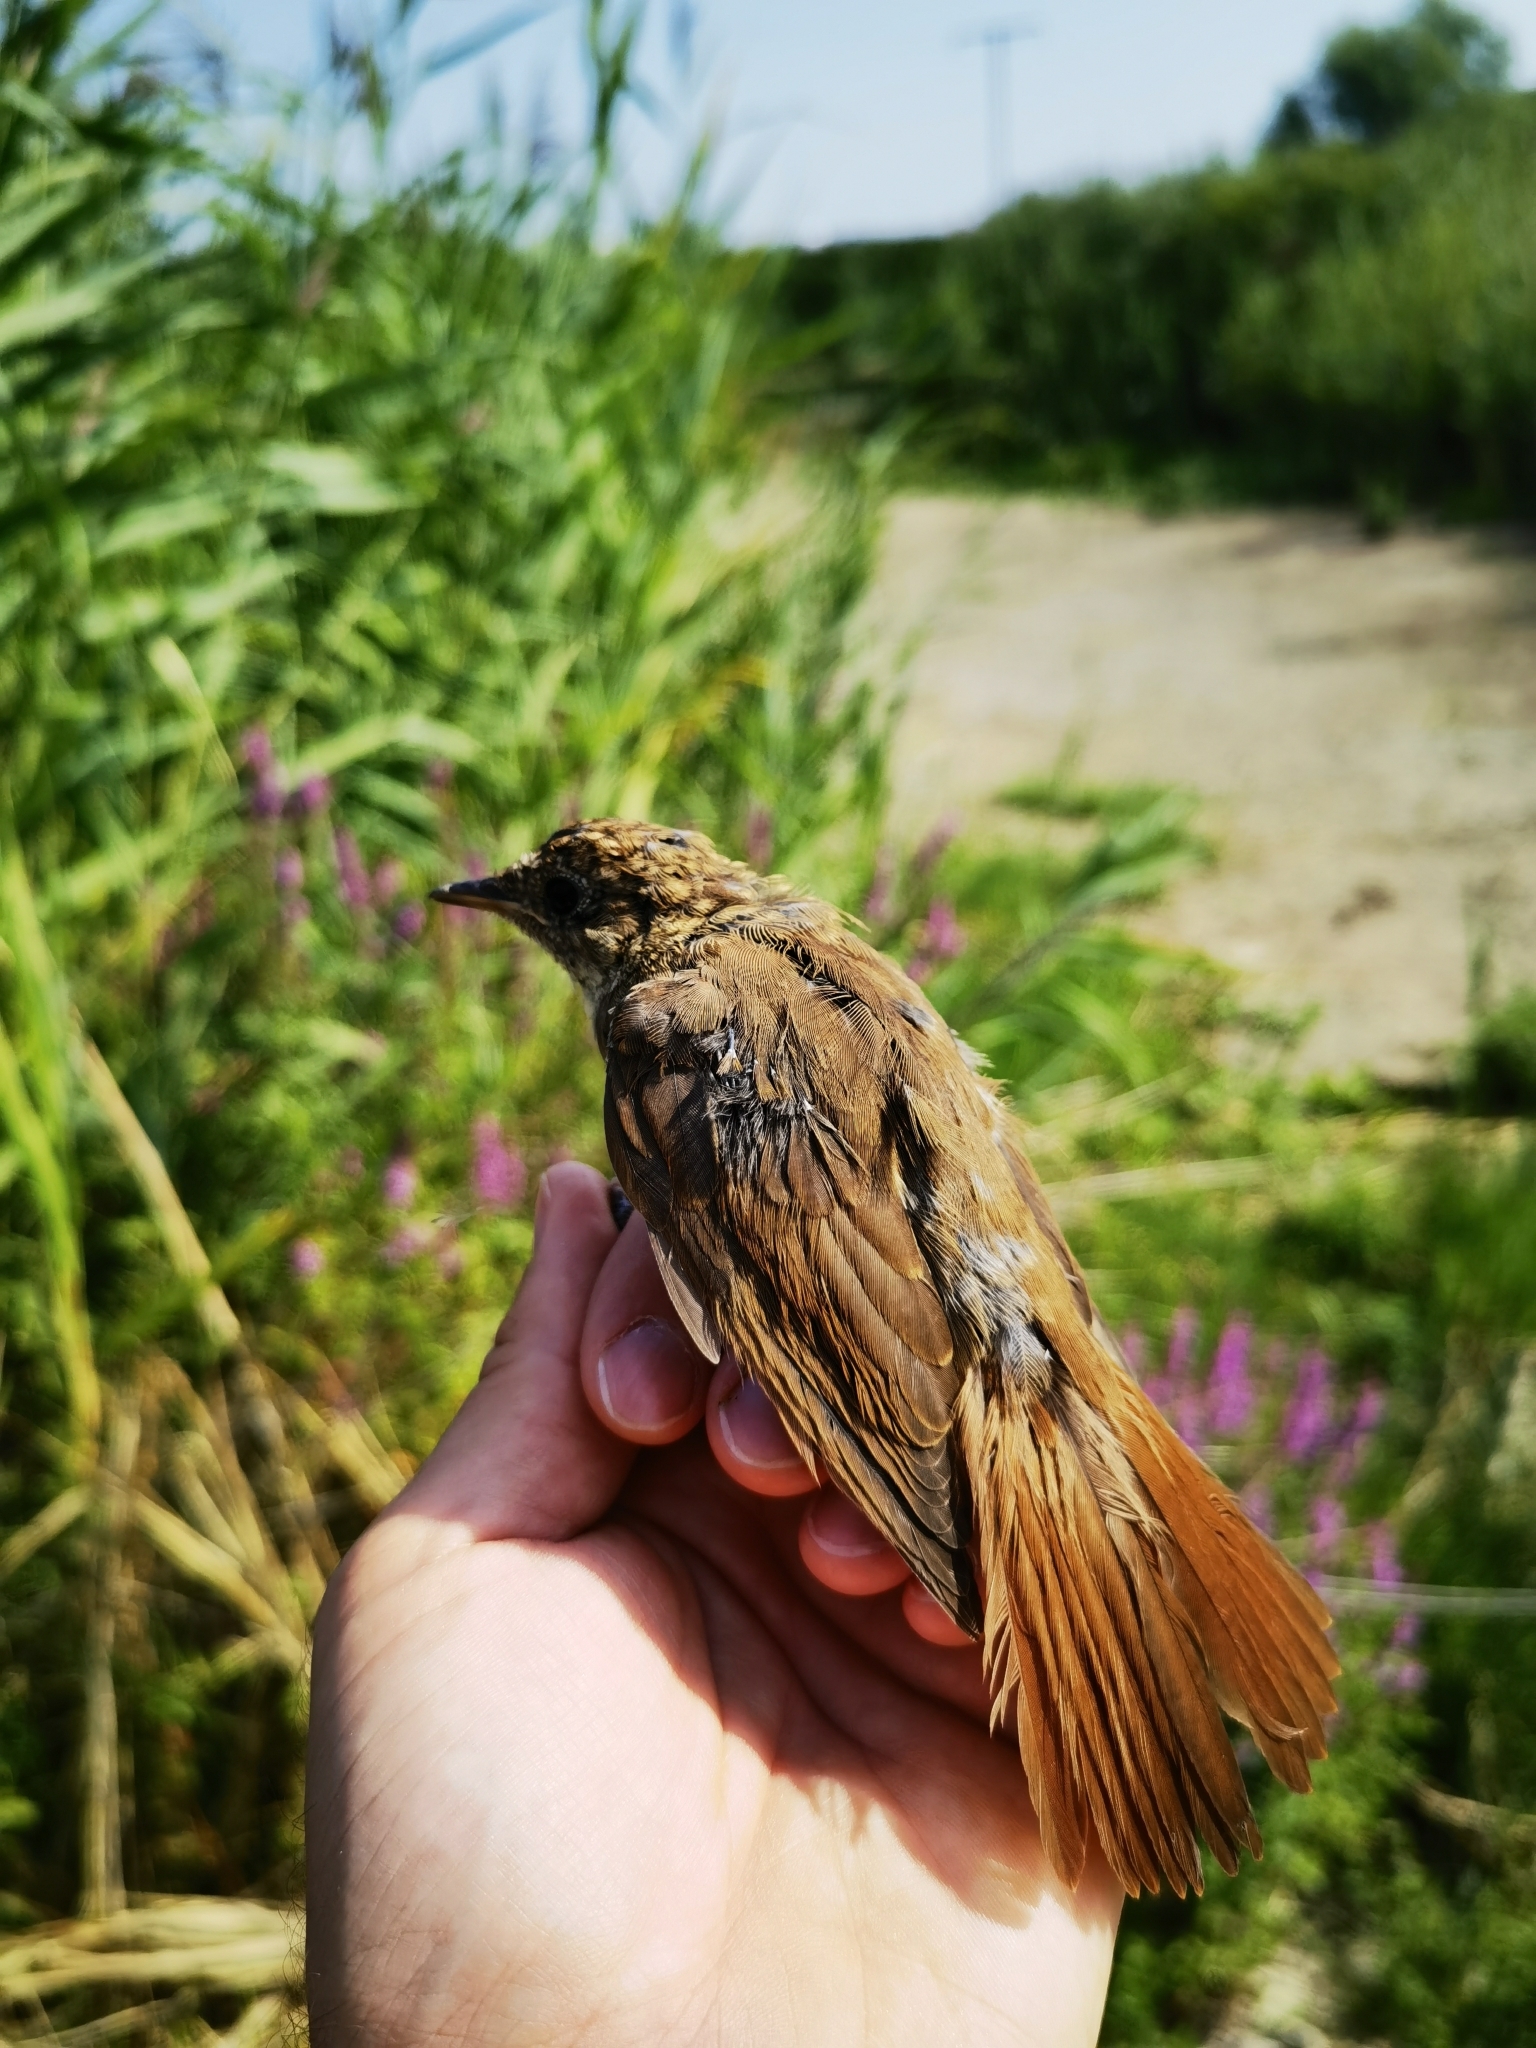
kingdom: Animalia
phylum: Chordata
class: Aves
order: Passeriformes
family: Muscicapidae
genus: Luscinia
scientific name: Luscinia megarhynchos
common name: Common nightingale
